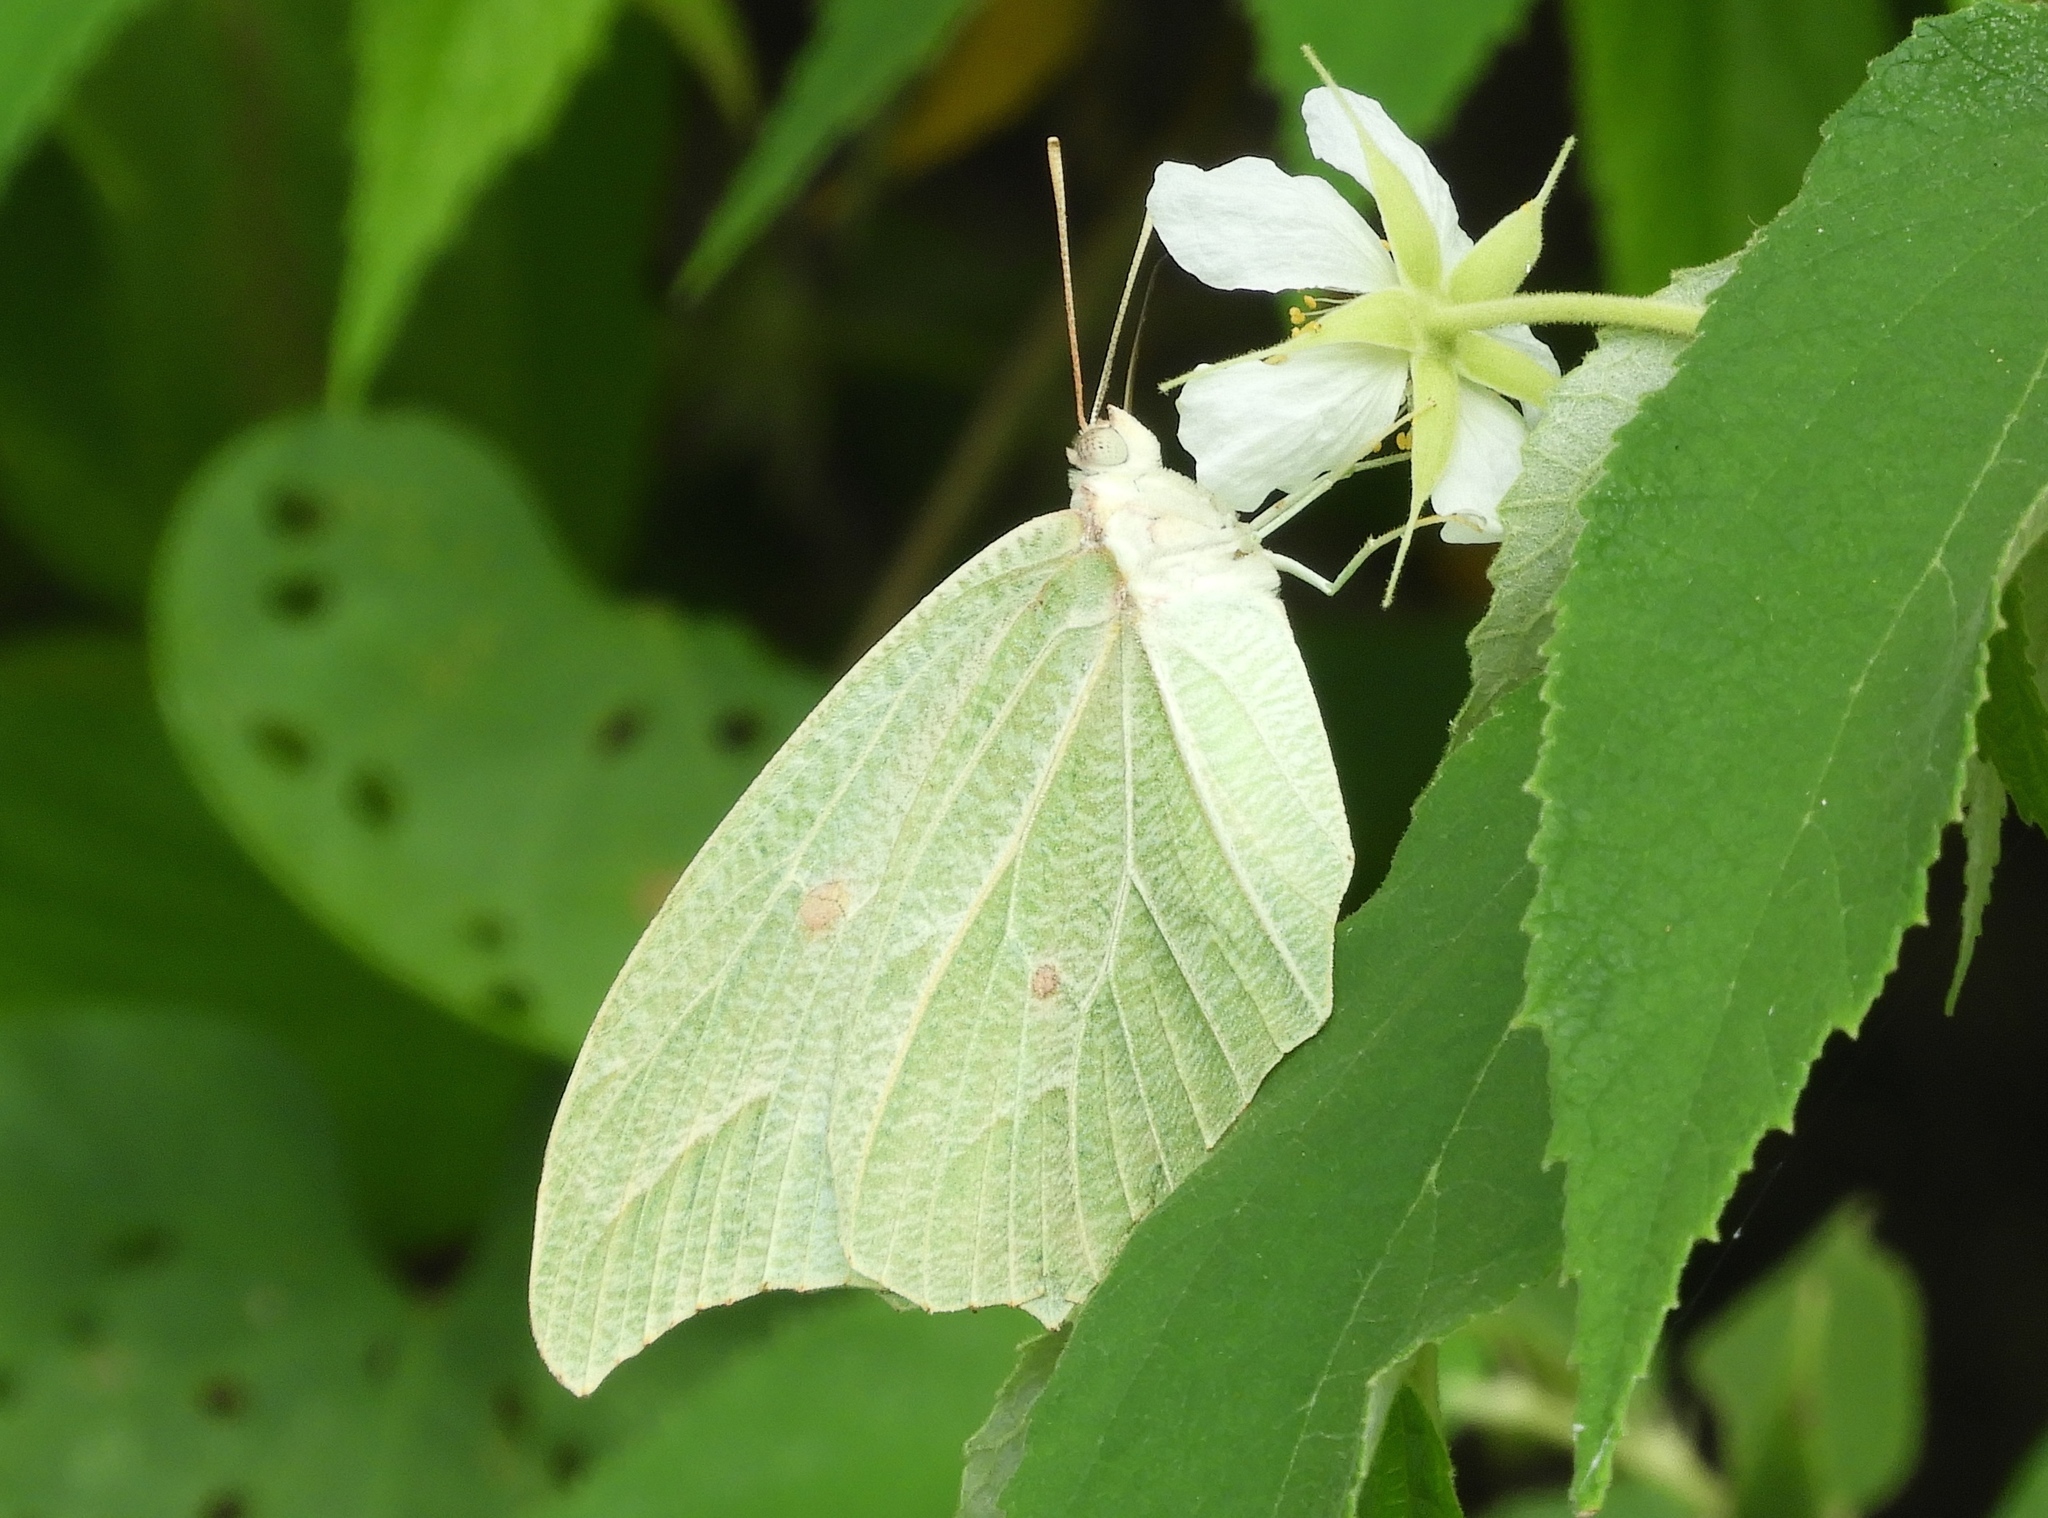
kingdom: Animalia
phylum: Arthropoda
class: Insecta
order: Lepidoptera
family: Pieridae
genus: Anteos
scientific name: Anteos clorinde
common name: White angled sulphur
